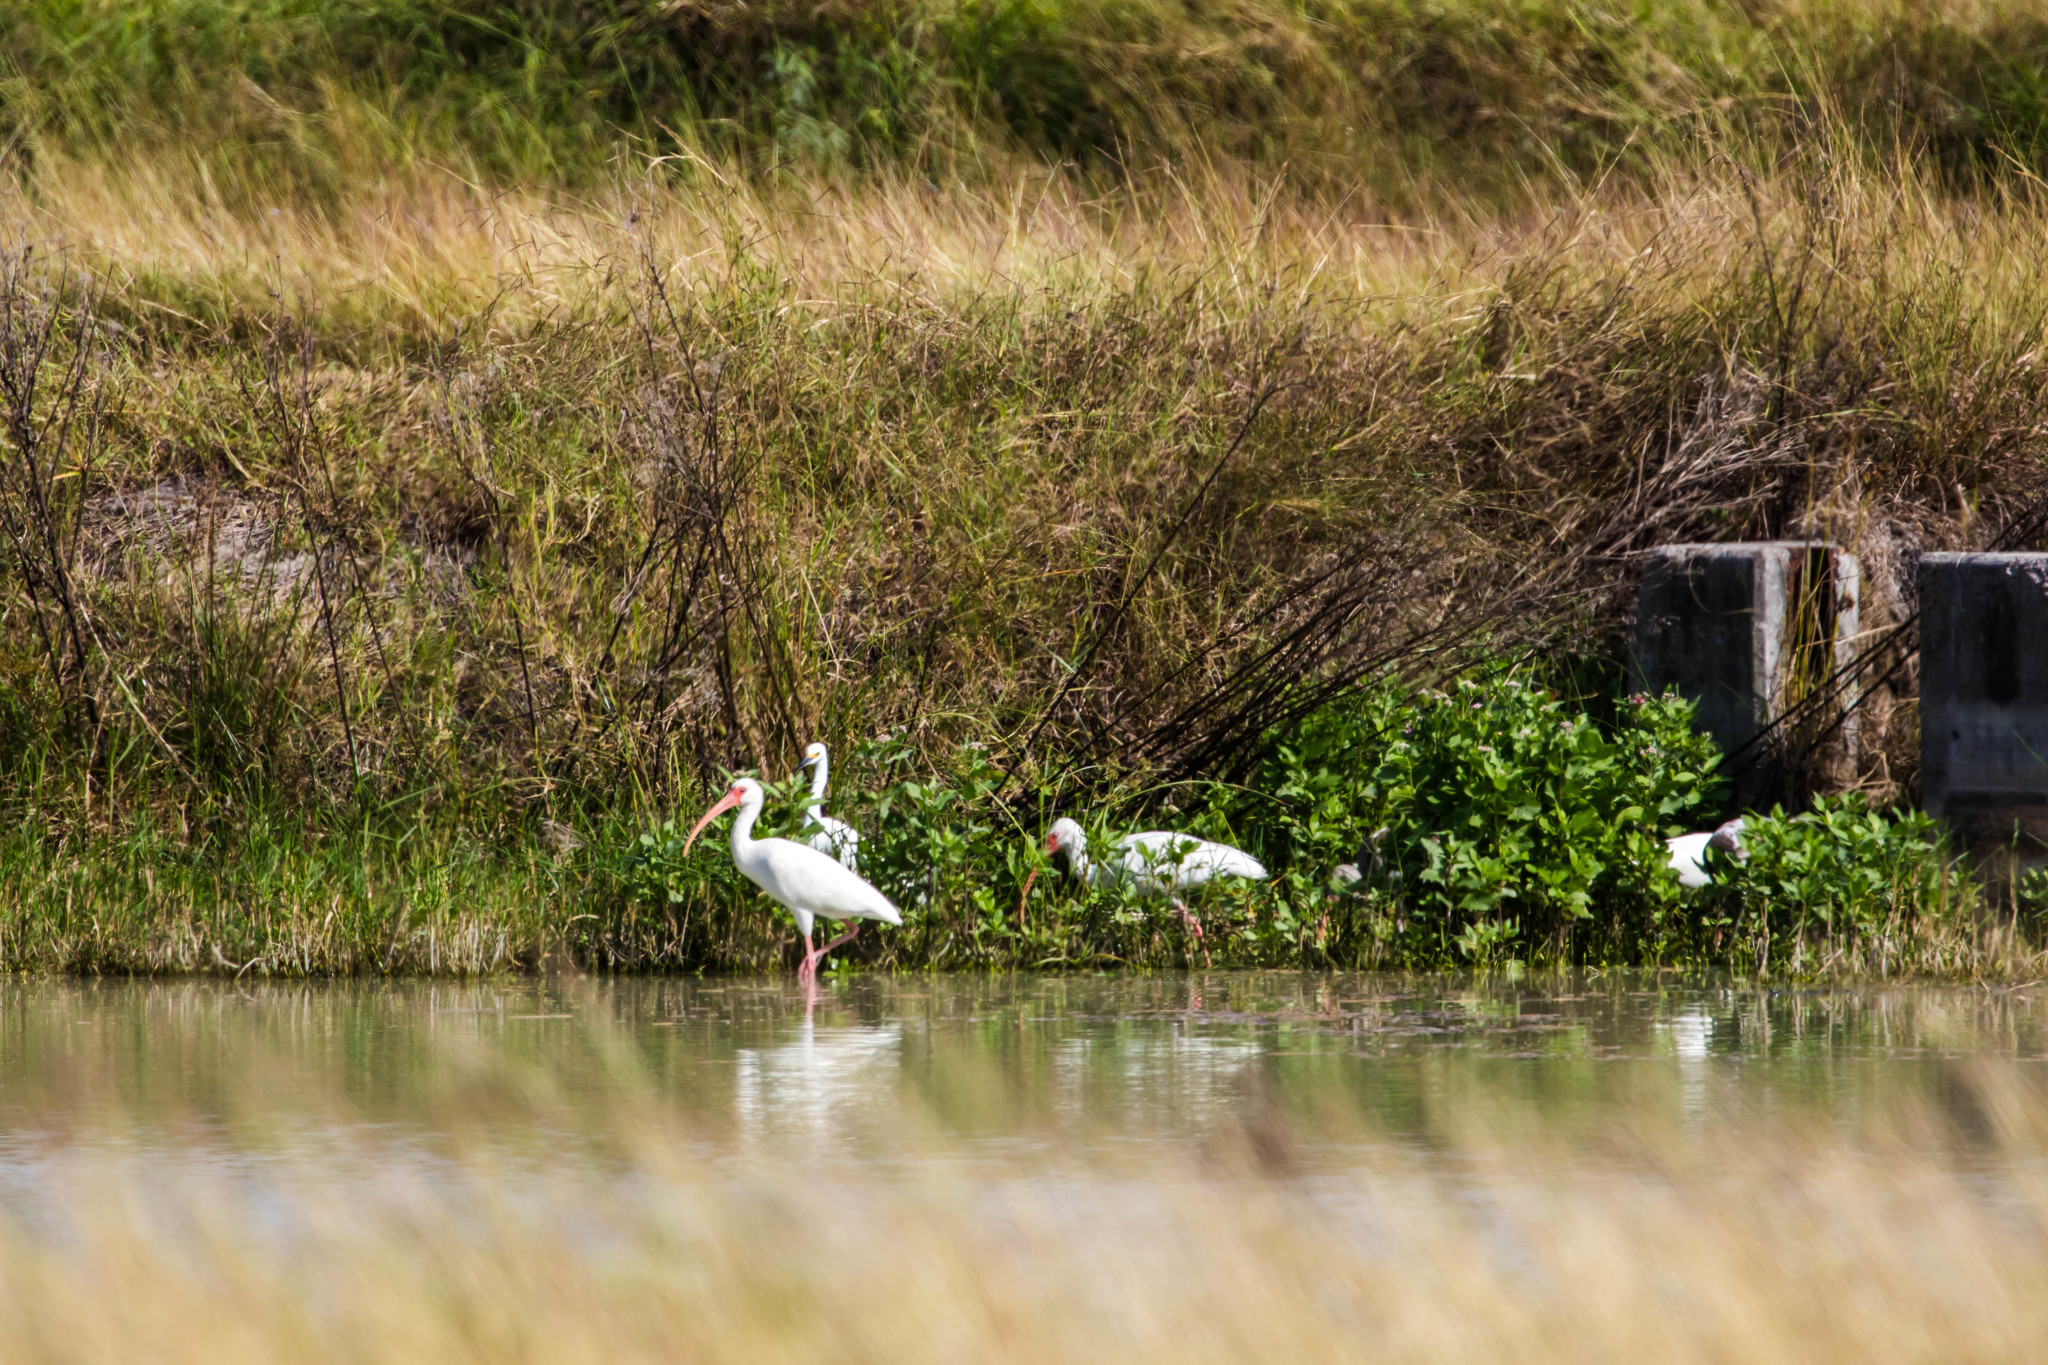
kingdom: Animalia
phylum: Chordata
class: Aves
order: Pelecaniformes
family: Threskiornithidae
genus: Eudocimus
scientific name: Eudocimus albus
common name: White ibis
